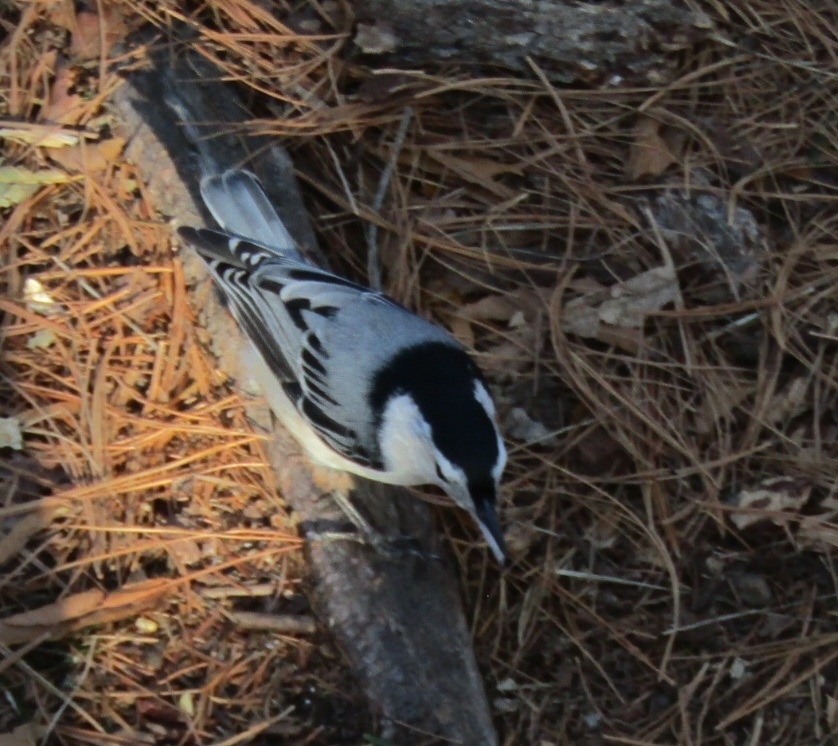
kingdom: Animalia
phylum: Chordata
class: Aves
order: Passeriformes
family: Sittidae
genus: Sitta
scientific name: Sitta carolinensis
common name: White-breasted nuthatch
